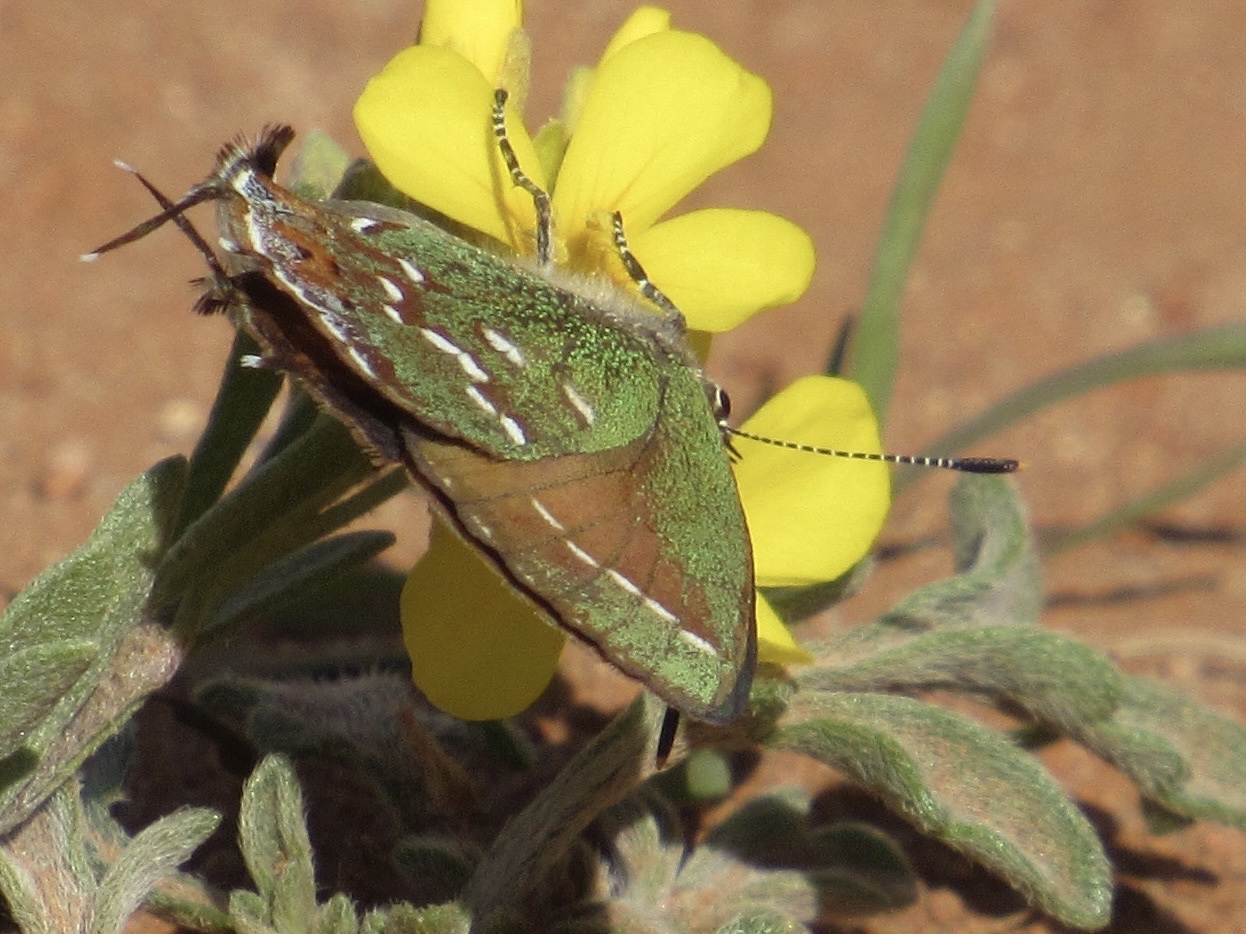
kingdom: Animalia
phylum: Arthropoda
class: Insecta
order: Lepidoptera
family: Lycaenidae
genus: Mitoura
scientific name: Mitoura gryneus
